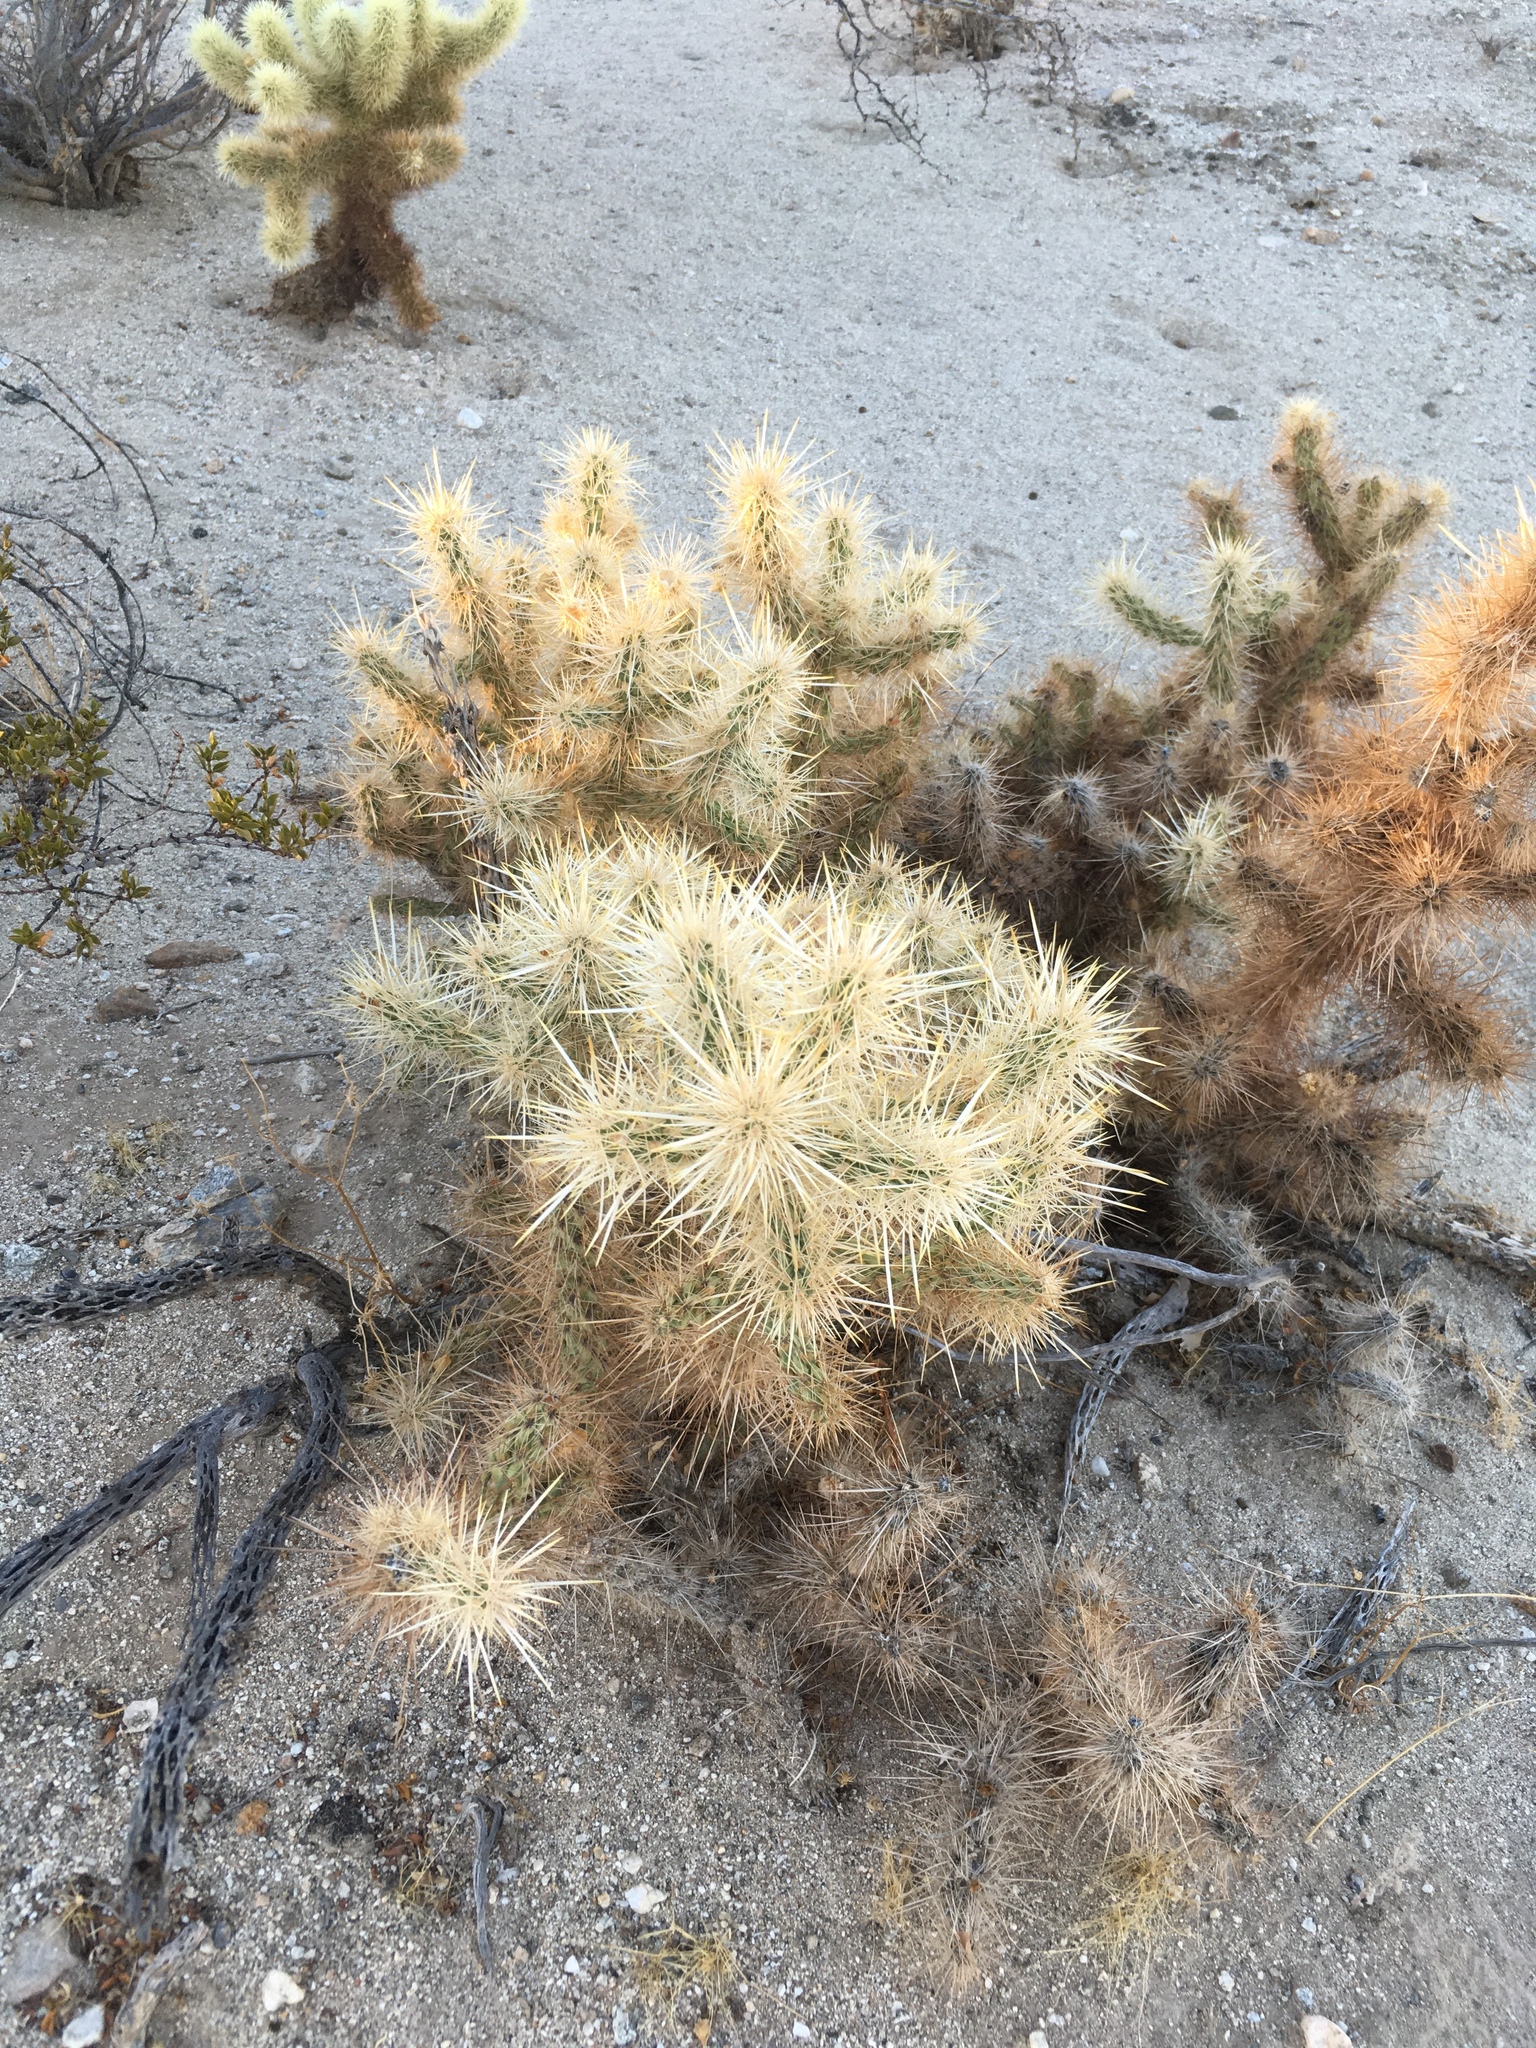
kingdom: Plantae
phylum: Tracheophyta
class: Magnoliopsida
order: Caryophyllales
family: Cactaceae
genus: Cylindropuntia
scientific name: Cylindropuntia echinocarpa
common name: Ground cholla
